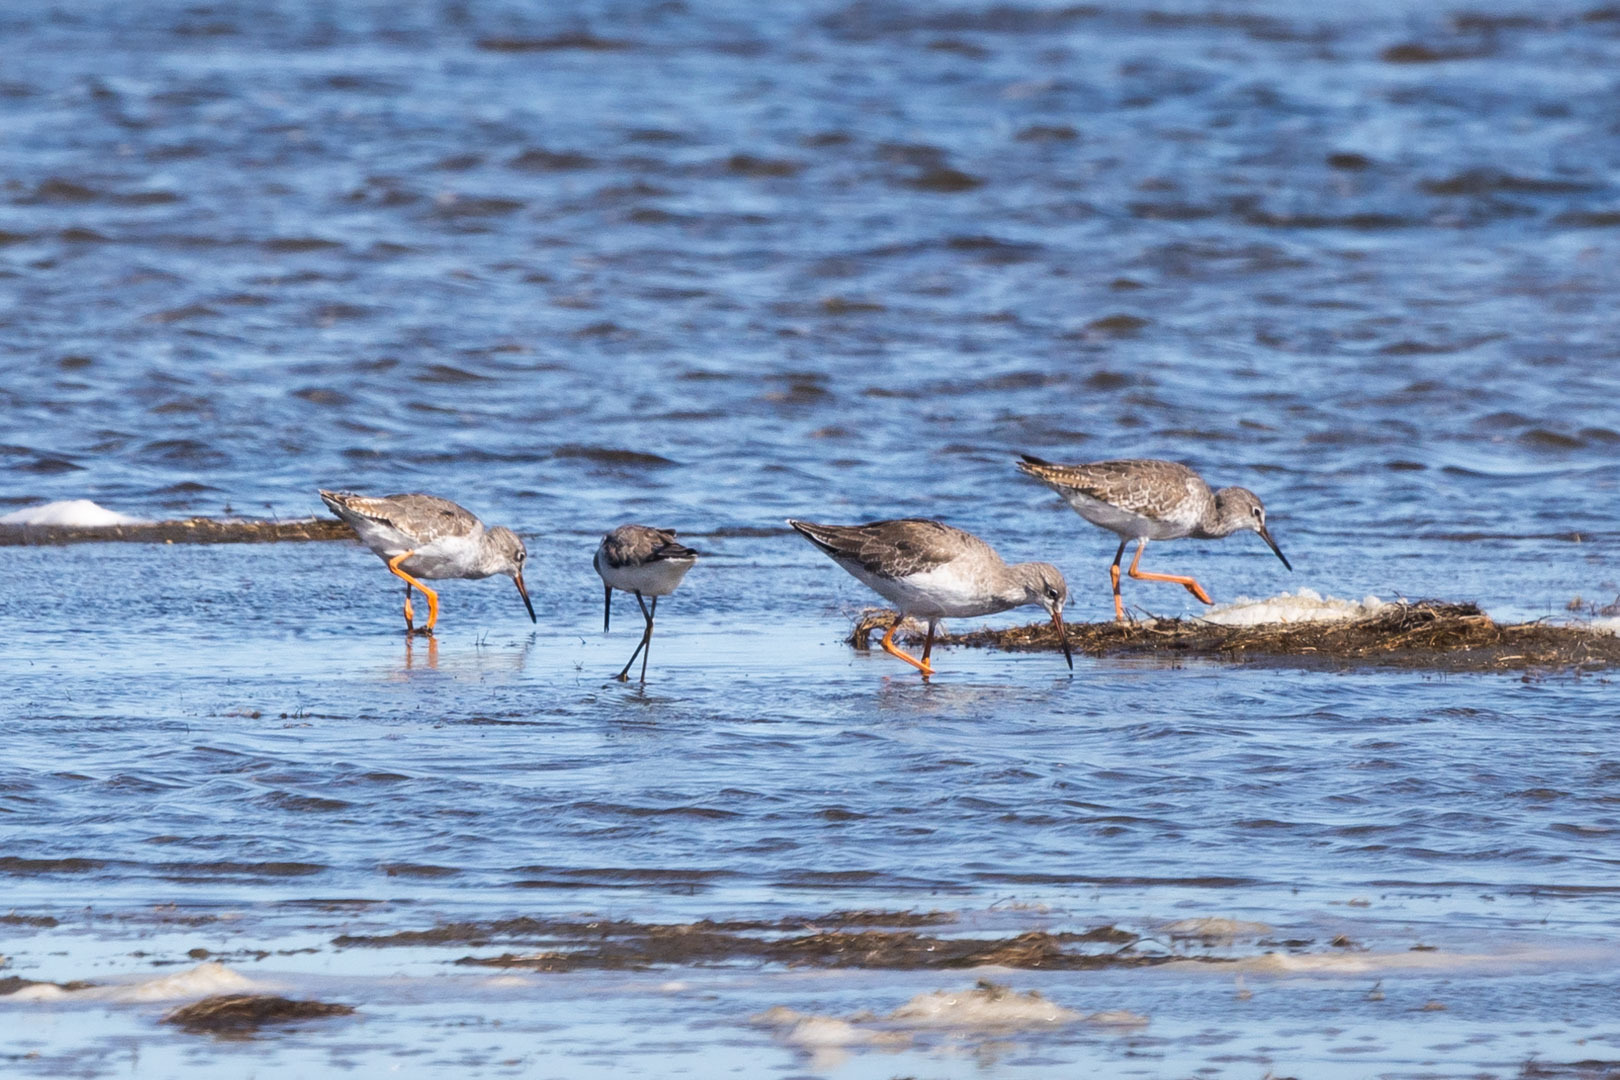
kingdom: Animalia
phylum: Chordata
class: Aves
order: Charadriiformes
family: Scolopacidae
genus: Tringa
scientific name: Tringa totanus
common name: Common redshank
